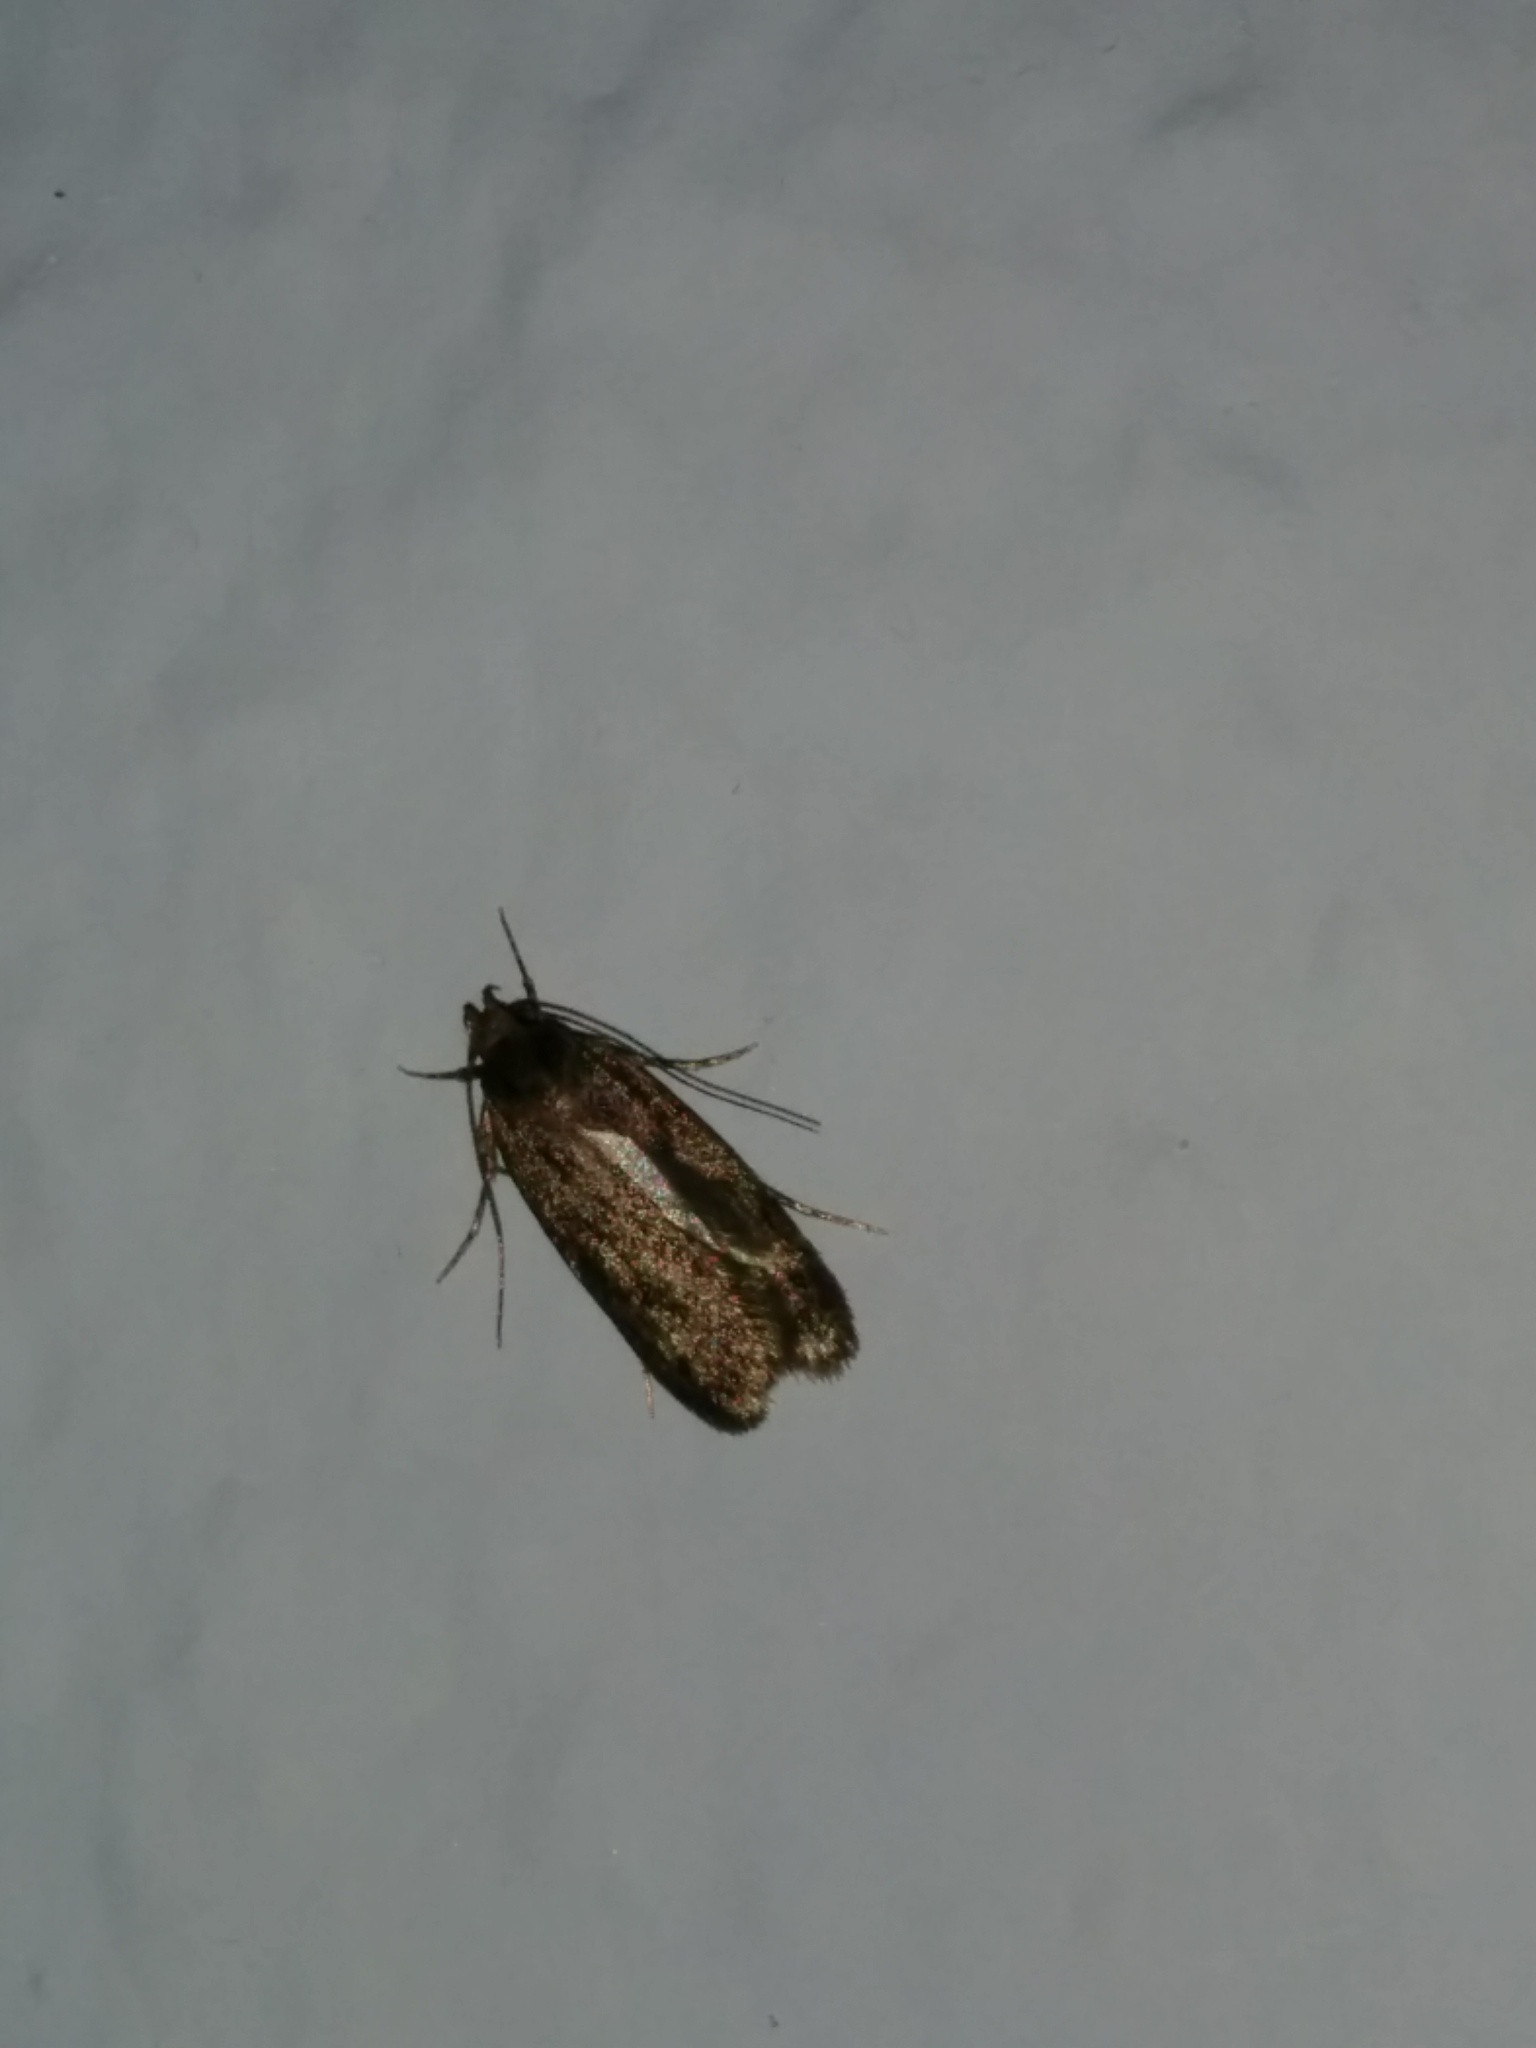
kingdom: Animalia
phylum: Arthropoda
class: Insecta
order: Lepidoptera
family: Oecophoridae
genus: Hofmannophila
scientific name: Hofmannophila pseudospretella
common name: Brown house moth
